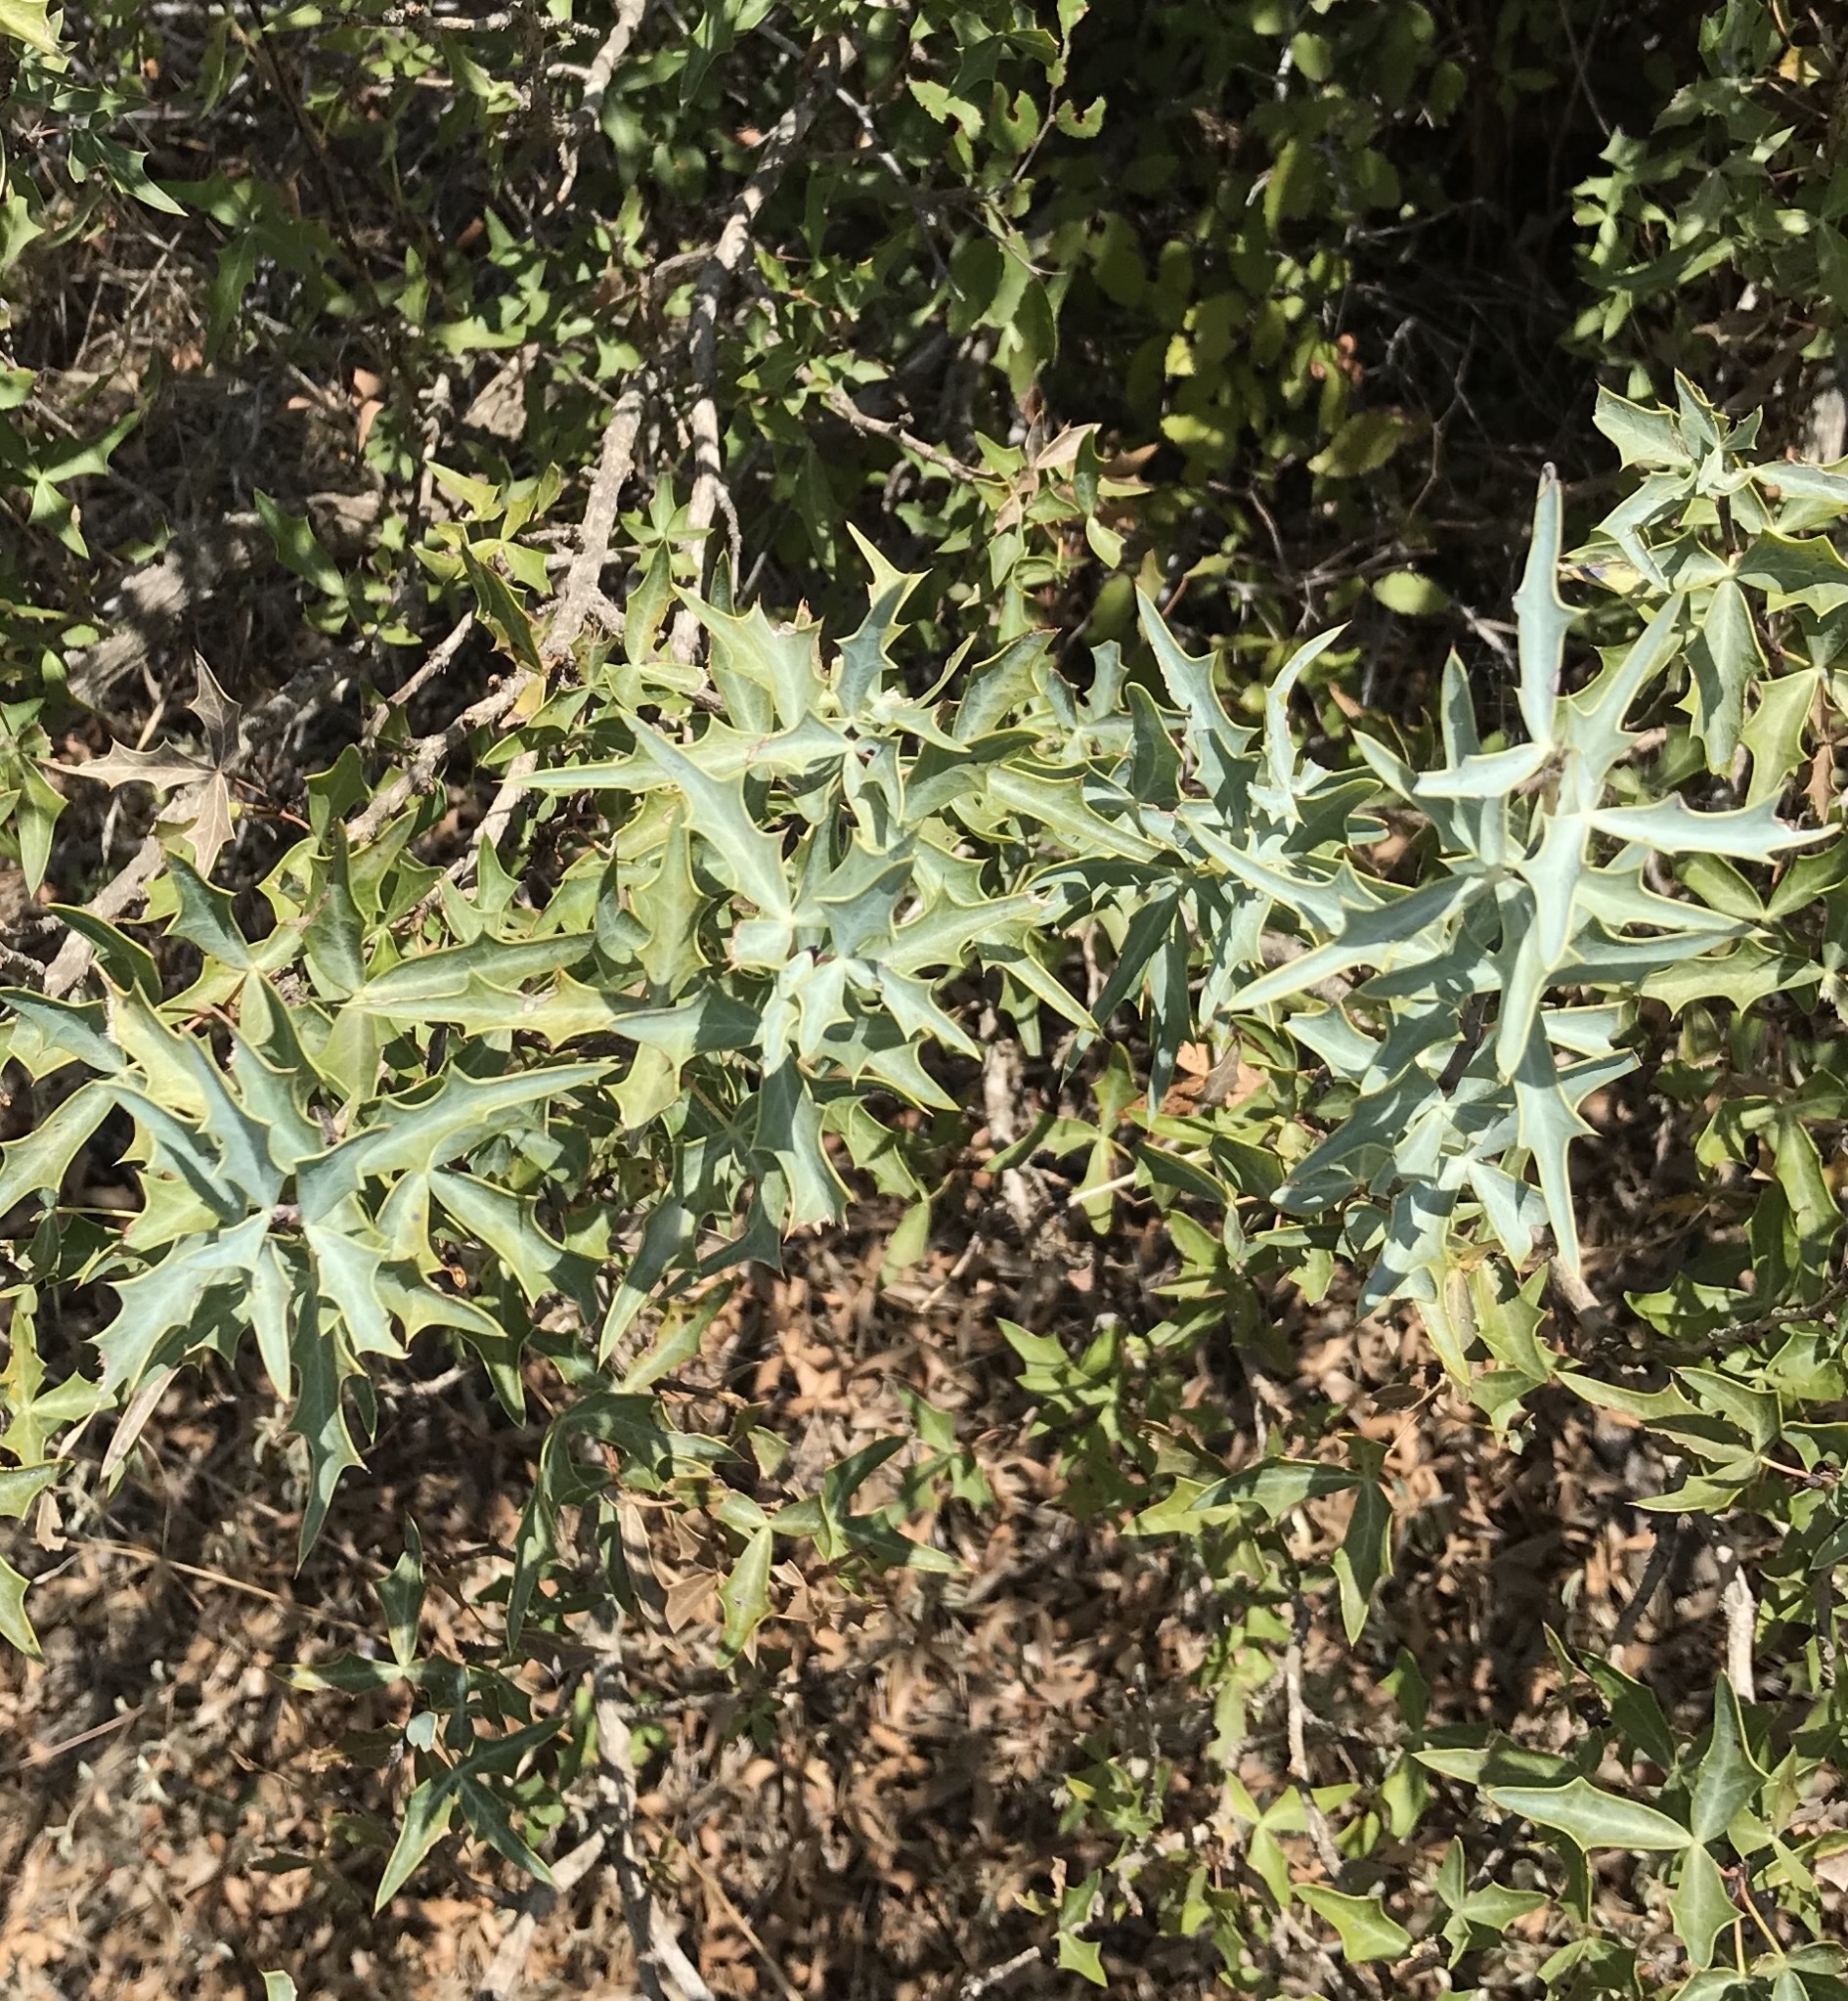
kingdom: Plantae
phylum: Tracheophyta
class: Magnoliopsida
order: Ranunculales
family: Berberidaceae
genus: Alloberberis
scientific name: Alloberberis trifoliolata
